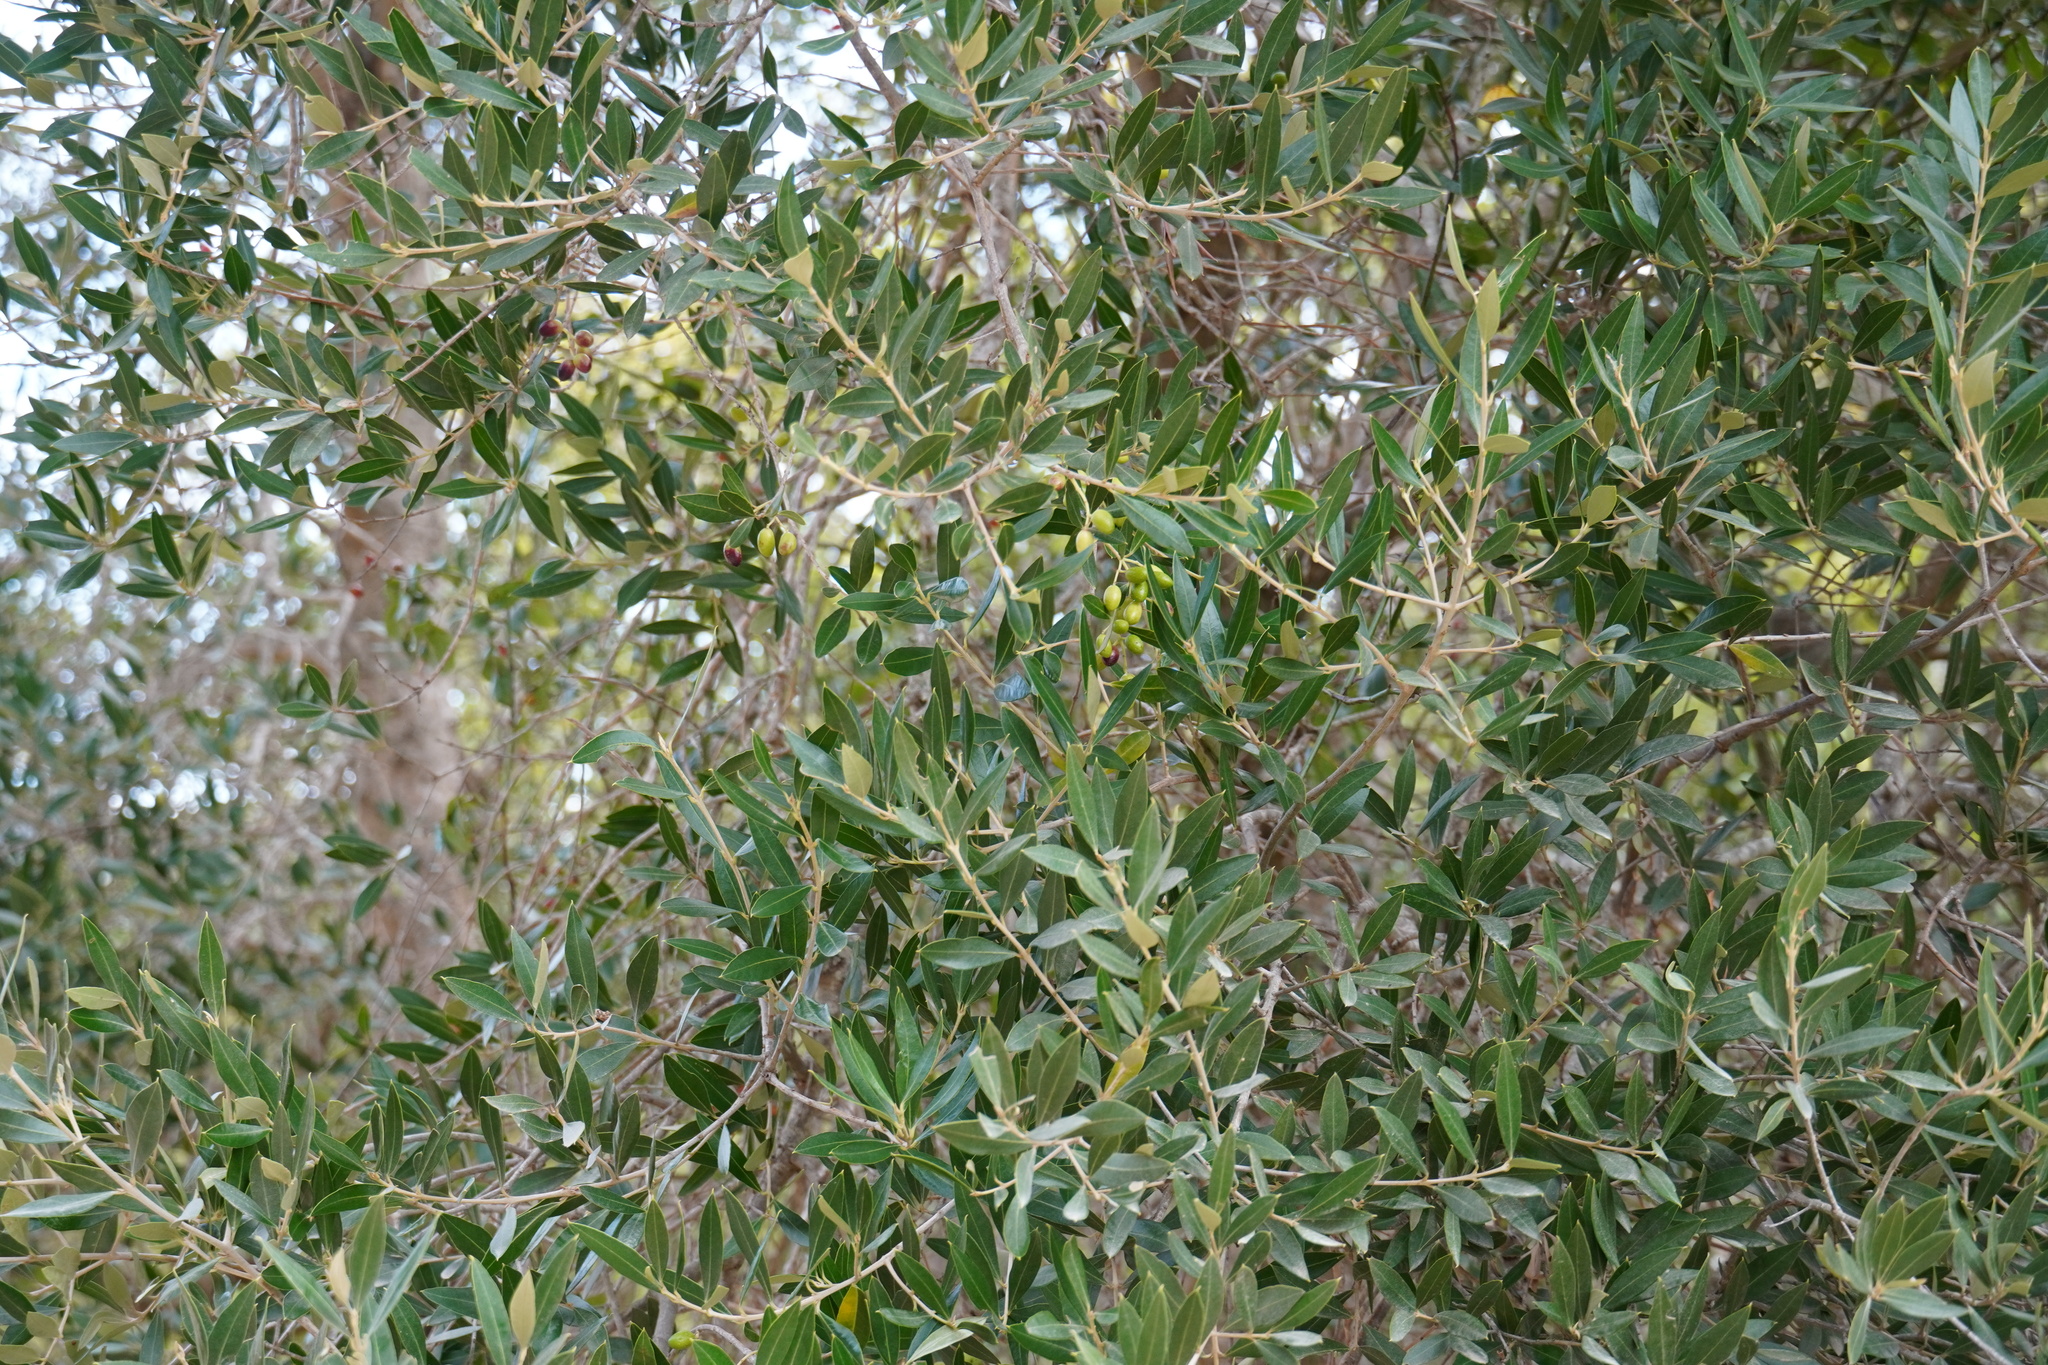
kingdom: Plantae
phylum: Tracheophyta
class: Magnoliopsida
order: Lamiales
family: Oleaceae
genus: Olea
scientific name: Olea europaea
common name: Olive
